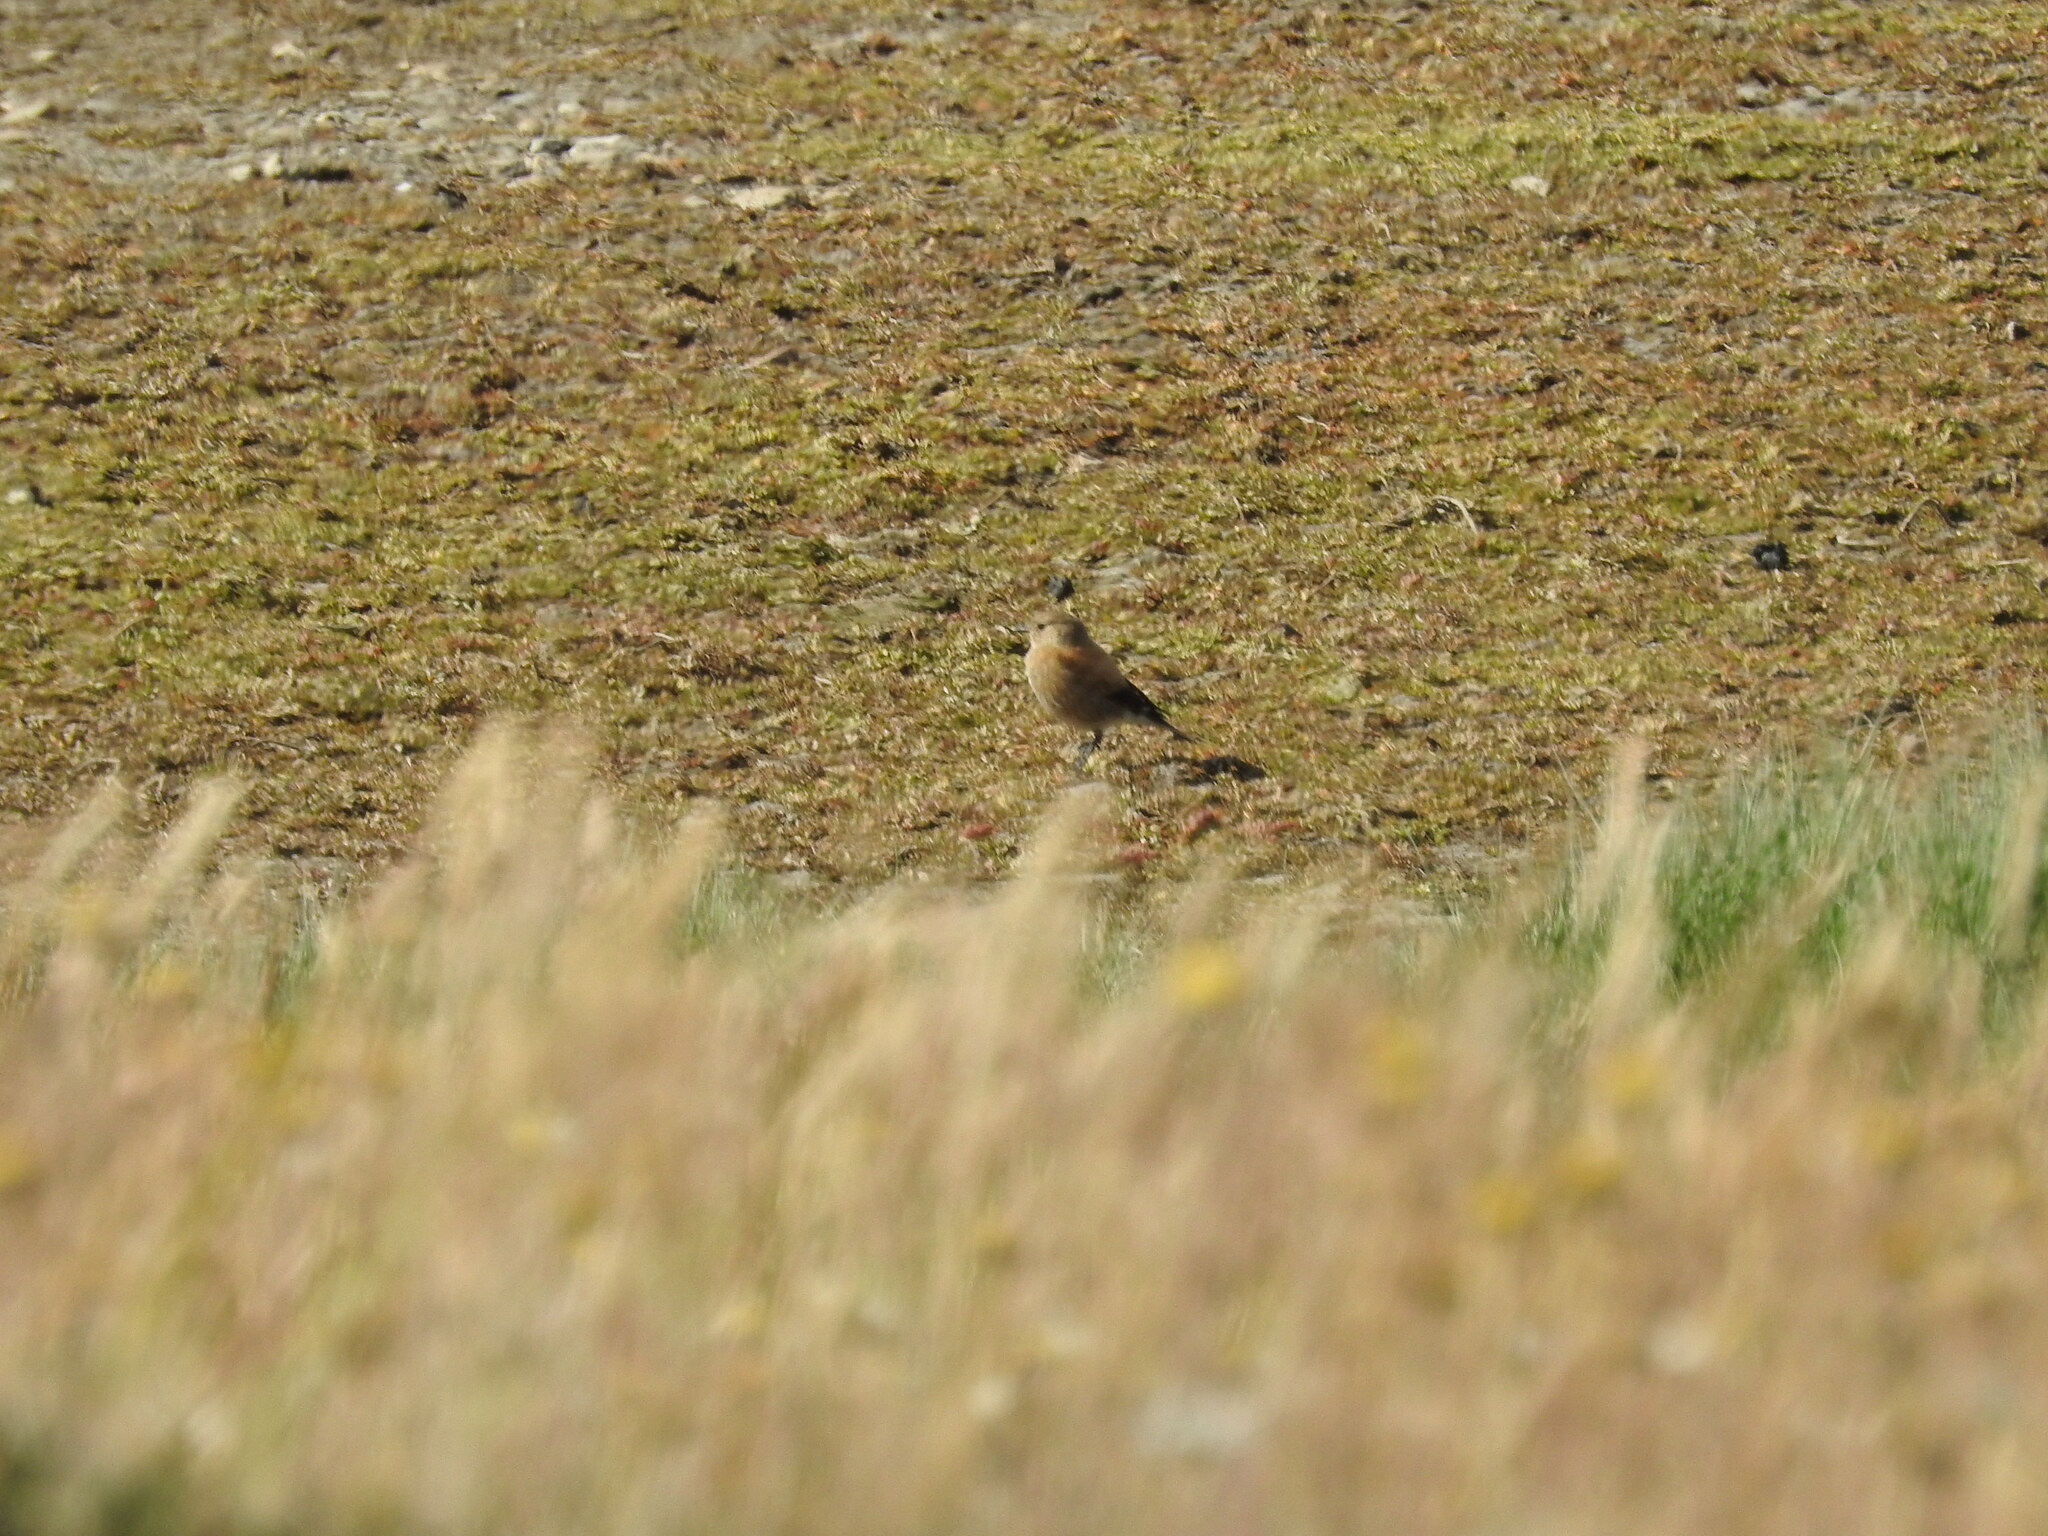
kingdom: Animalia
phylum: Chordata
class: Aves
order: Passeriformes
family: Tyrannidae
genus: Lessonia
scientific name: Lessonia rufa
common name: Austral negrito
